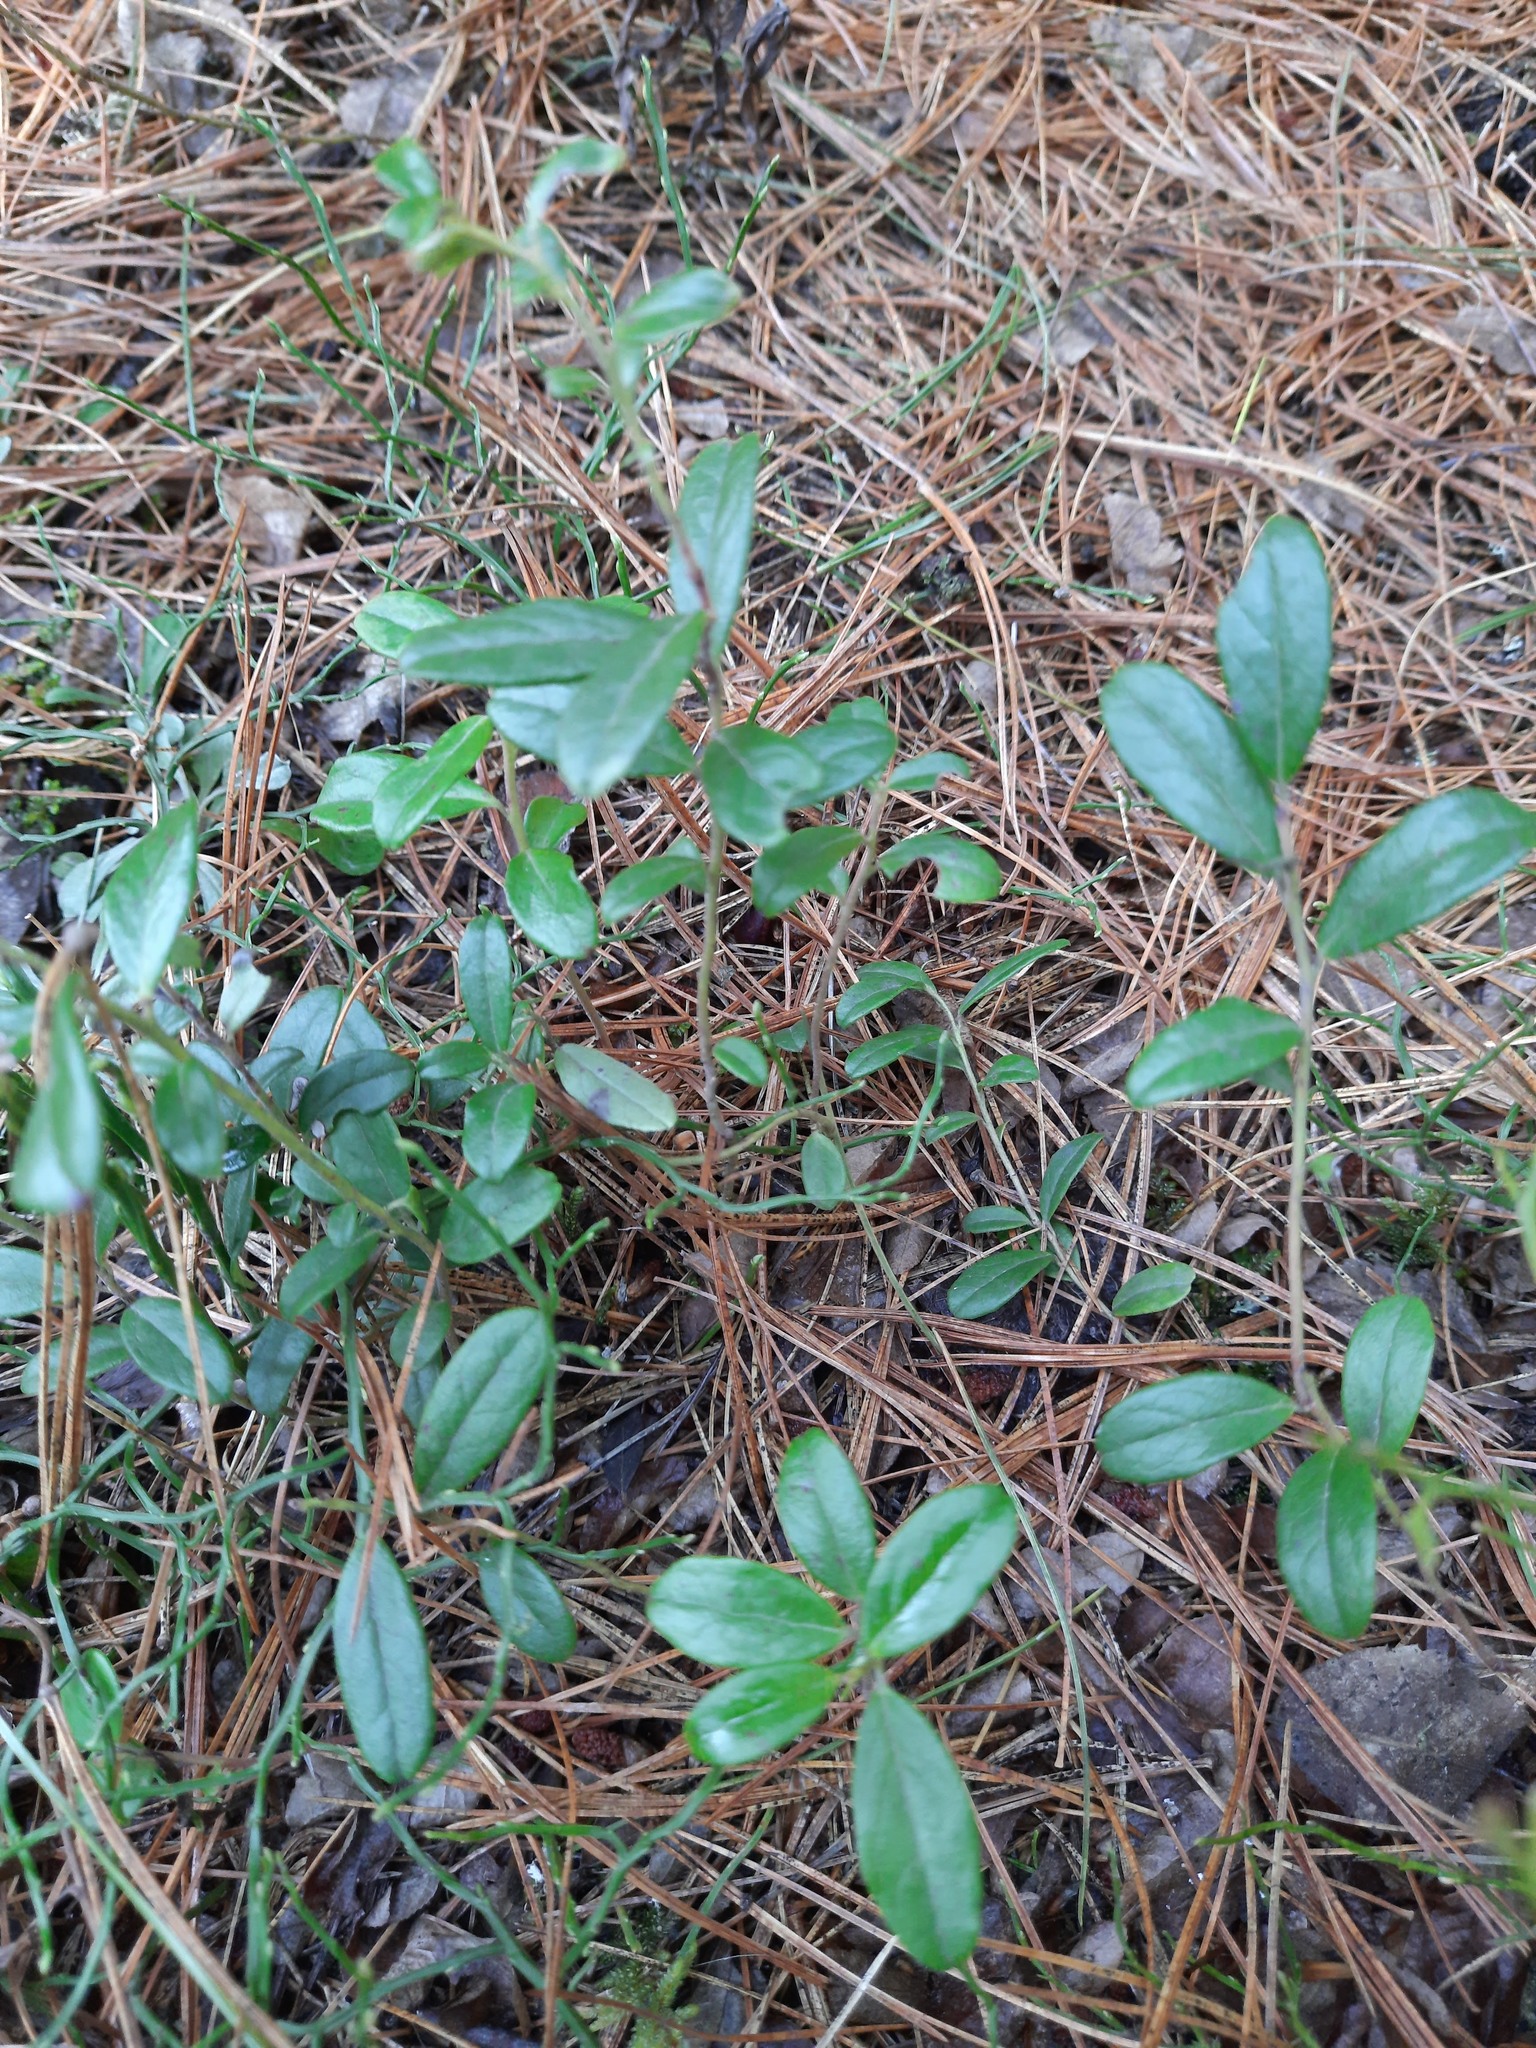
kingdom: Plantae
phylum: Tracheophyta
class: Magnoliopsida
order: Ericales
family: Ericaceae
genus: Vaccinium
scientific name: Vaccinium vitis-idaea
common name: Cowberry
